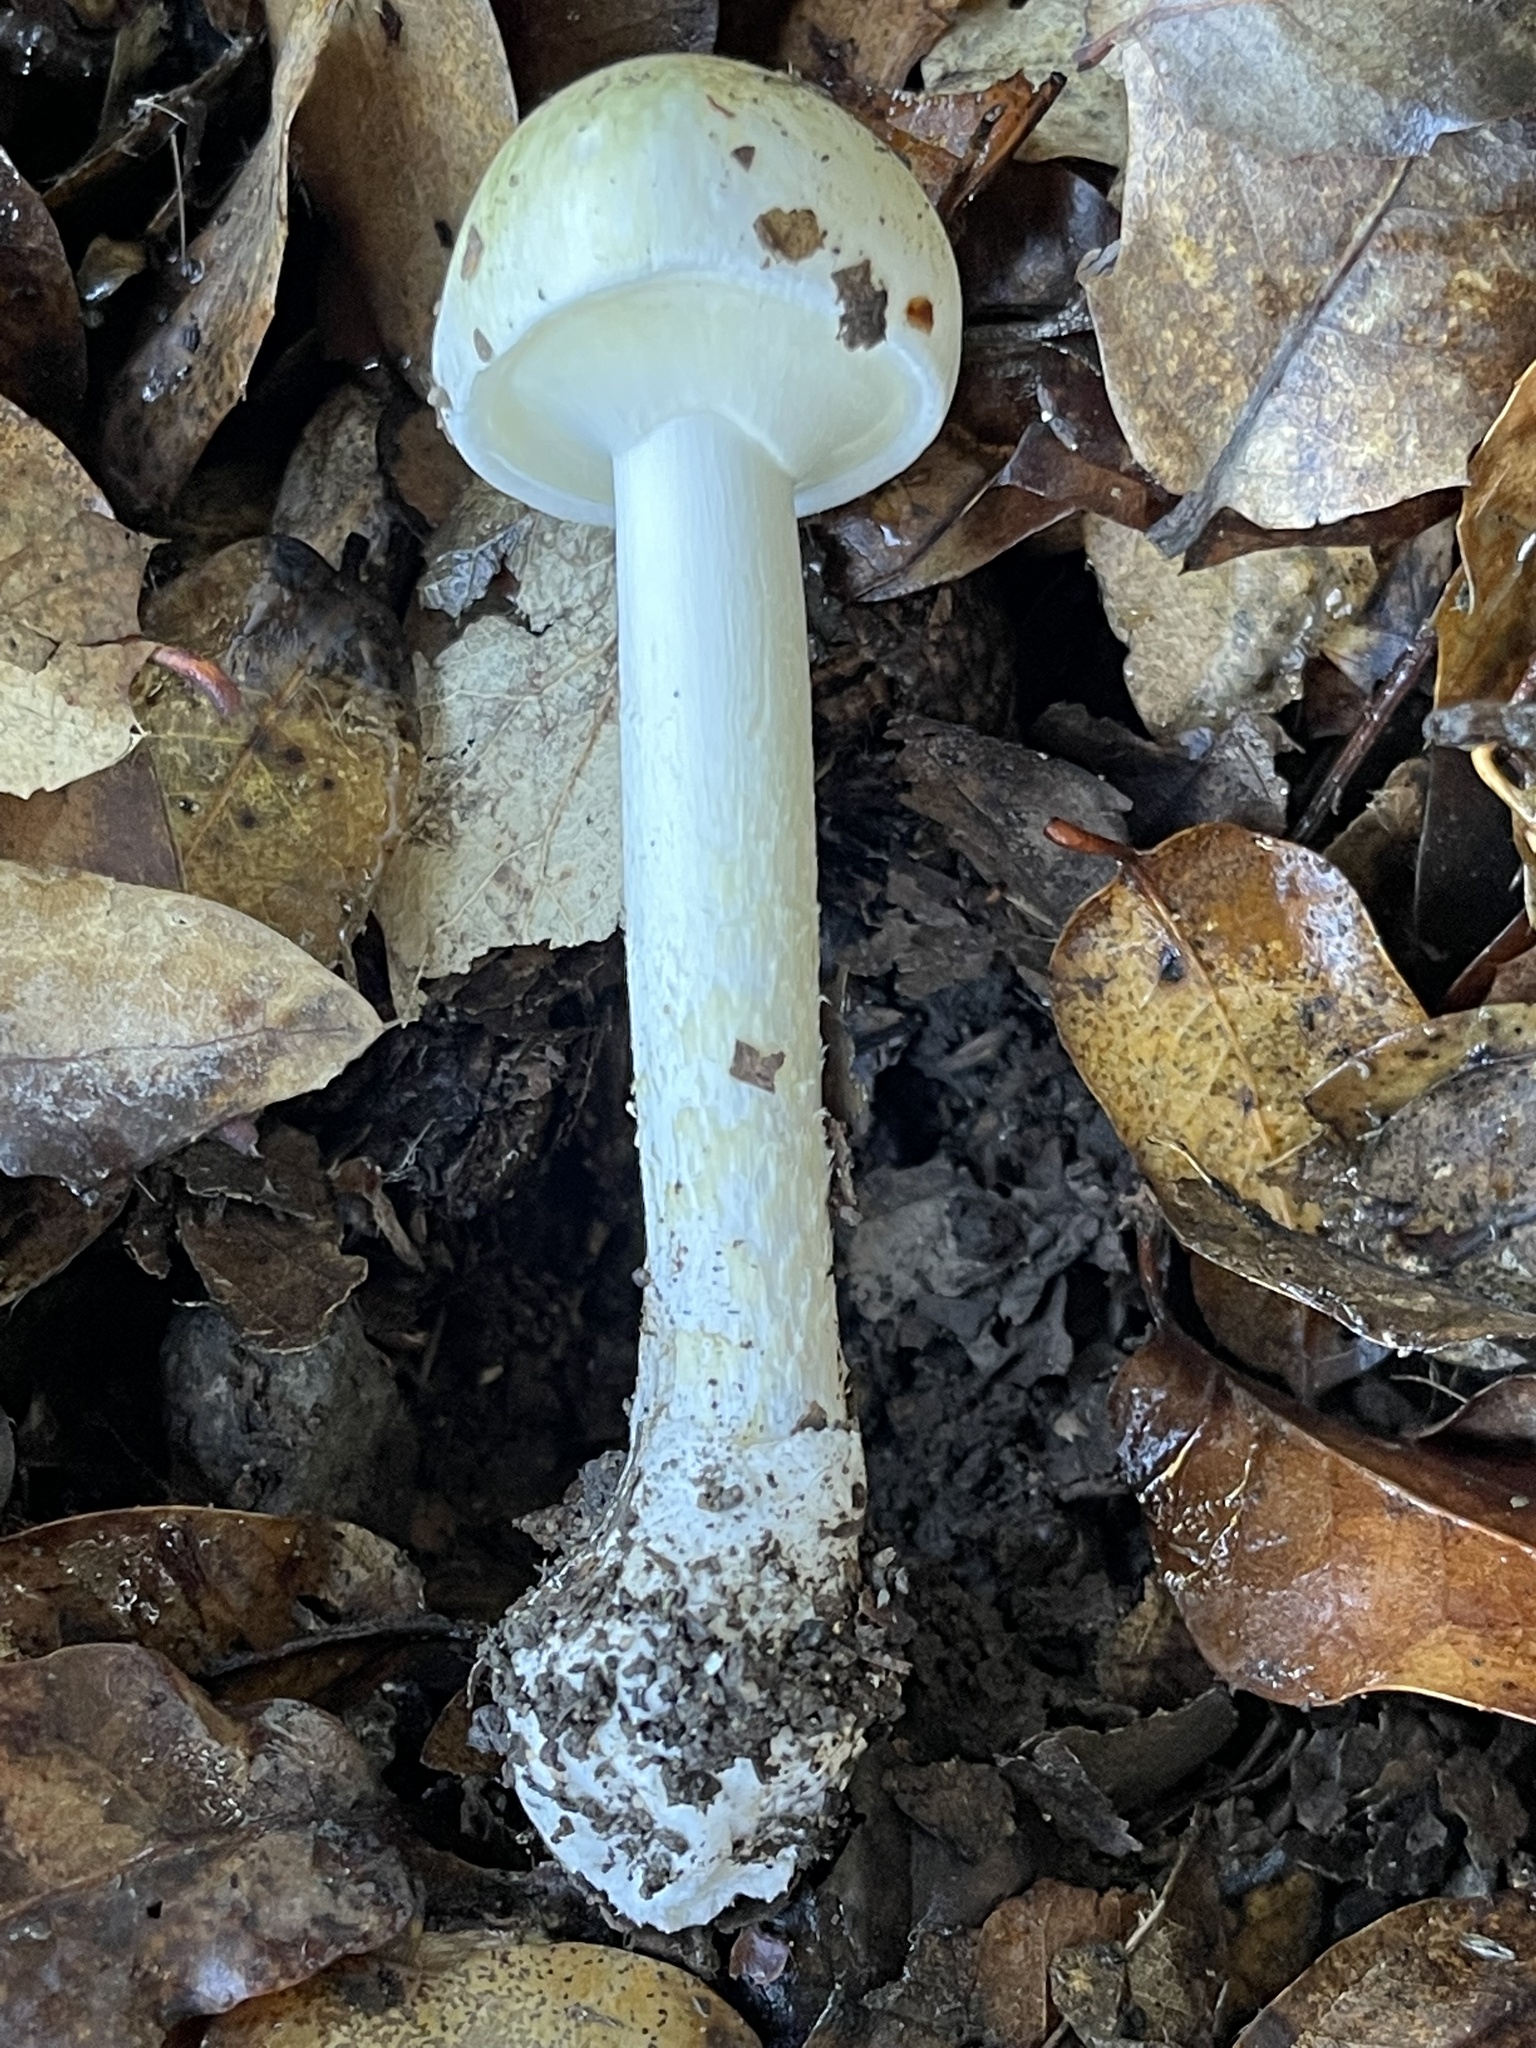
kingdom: Fungi
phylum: Basidiomycota
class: Agaricomycetes
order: Agaricales
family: Amanitaceae
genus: Amanita
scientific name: Amanita phalloides
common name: Death cap
